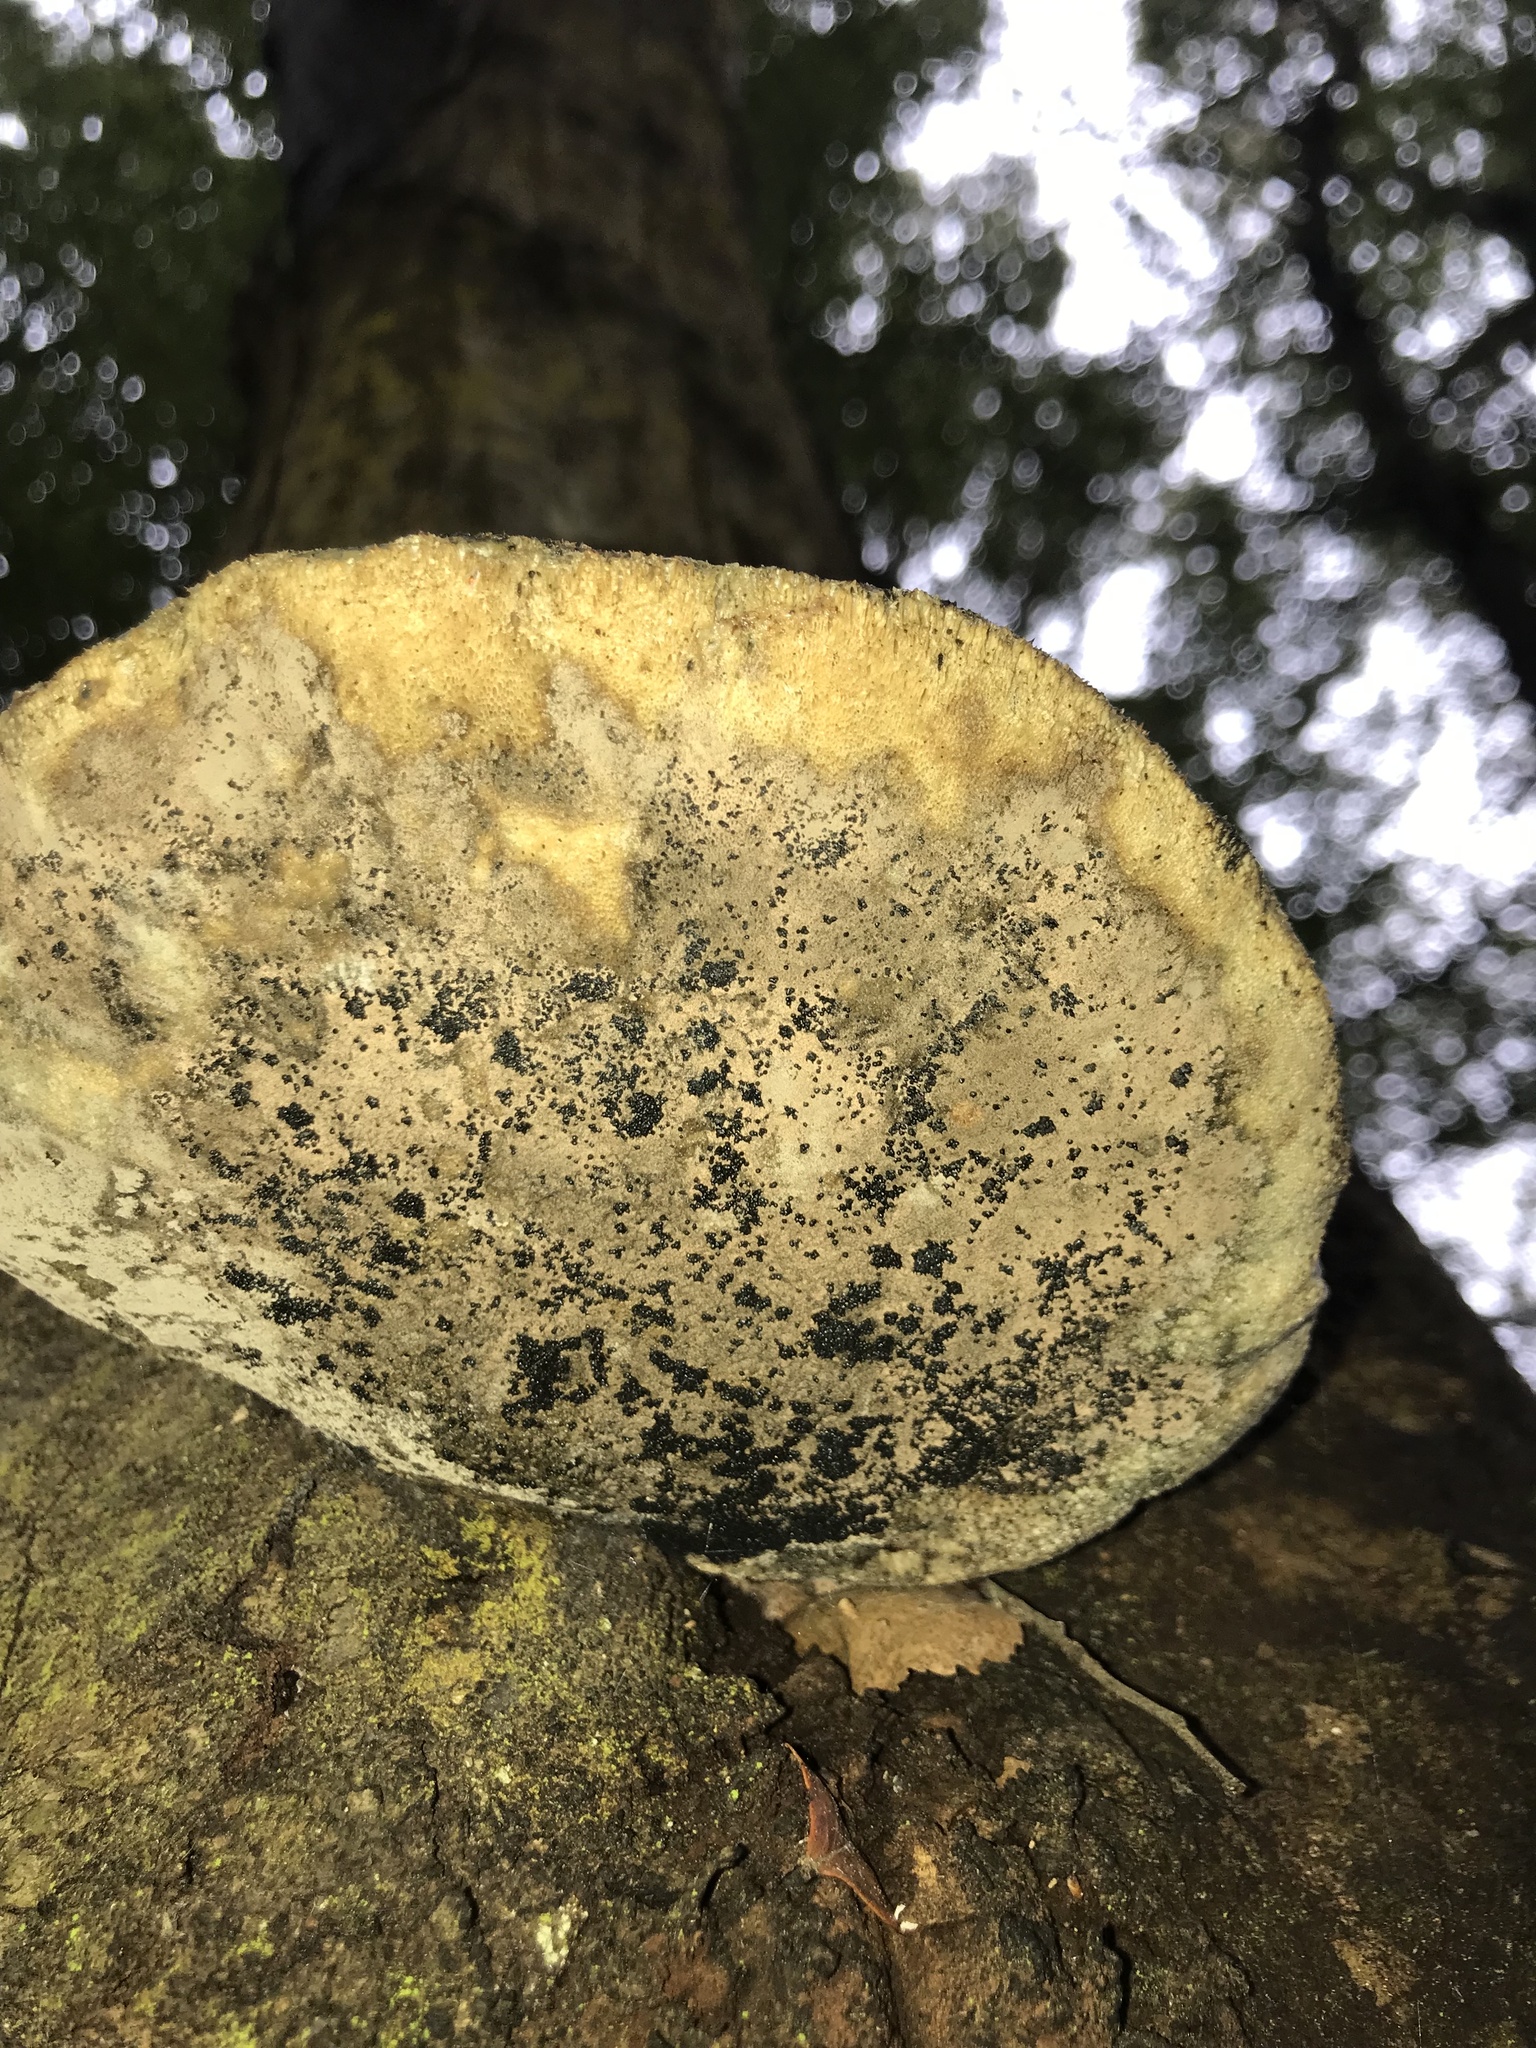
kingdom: Fungi
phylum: Basidiomycota
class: Agaricomycetes
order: Polyporales
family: Laetiporaceae
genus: Laetiporus
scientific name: Laetiporus portentosus
